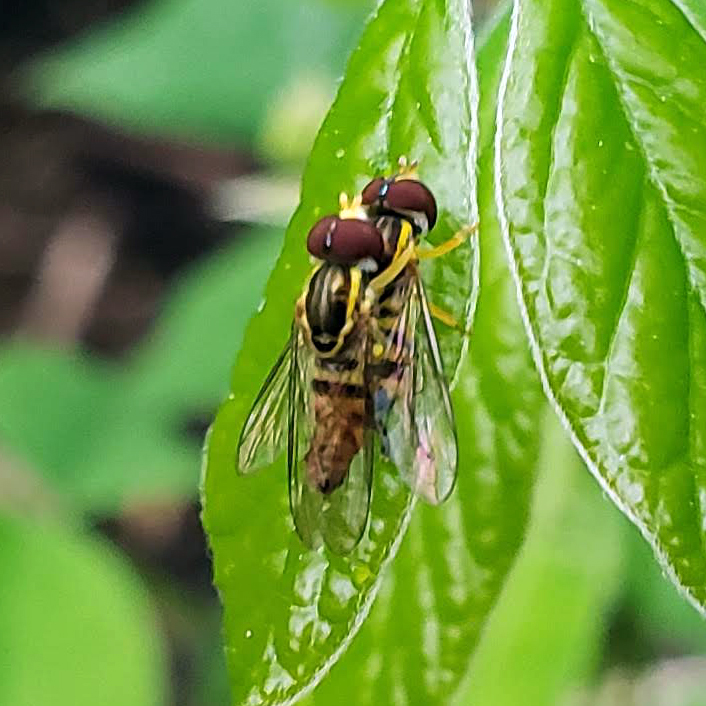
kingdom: Animalia
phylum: Arthropoda
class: Insecta
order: Diptera
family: Syrphidae
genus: Toxomerus
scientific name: Toxomerus geminatus
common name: Eastern calligrapher
